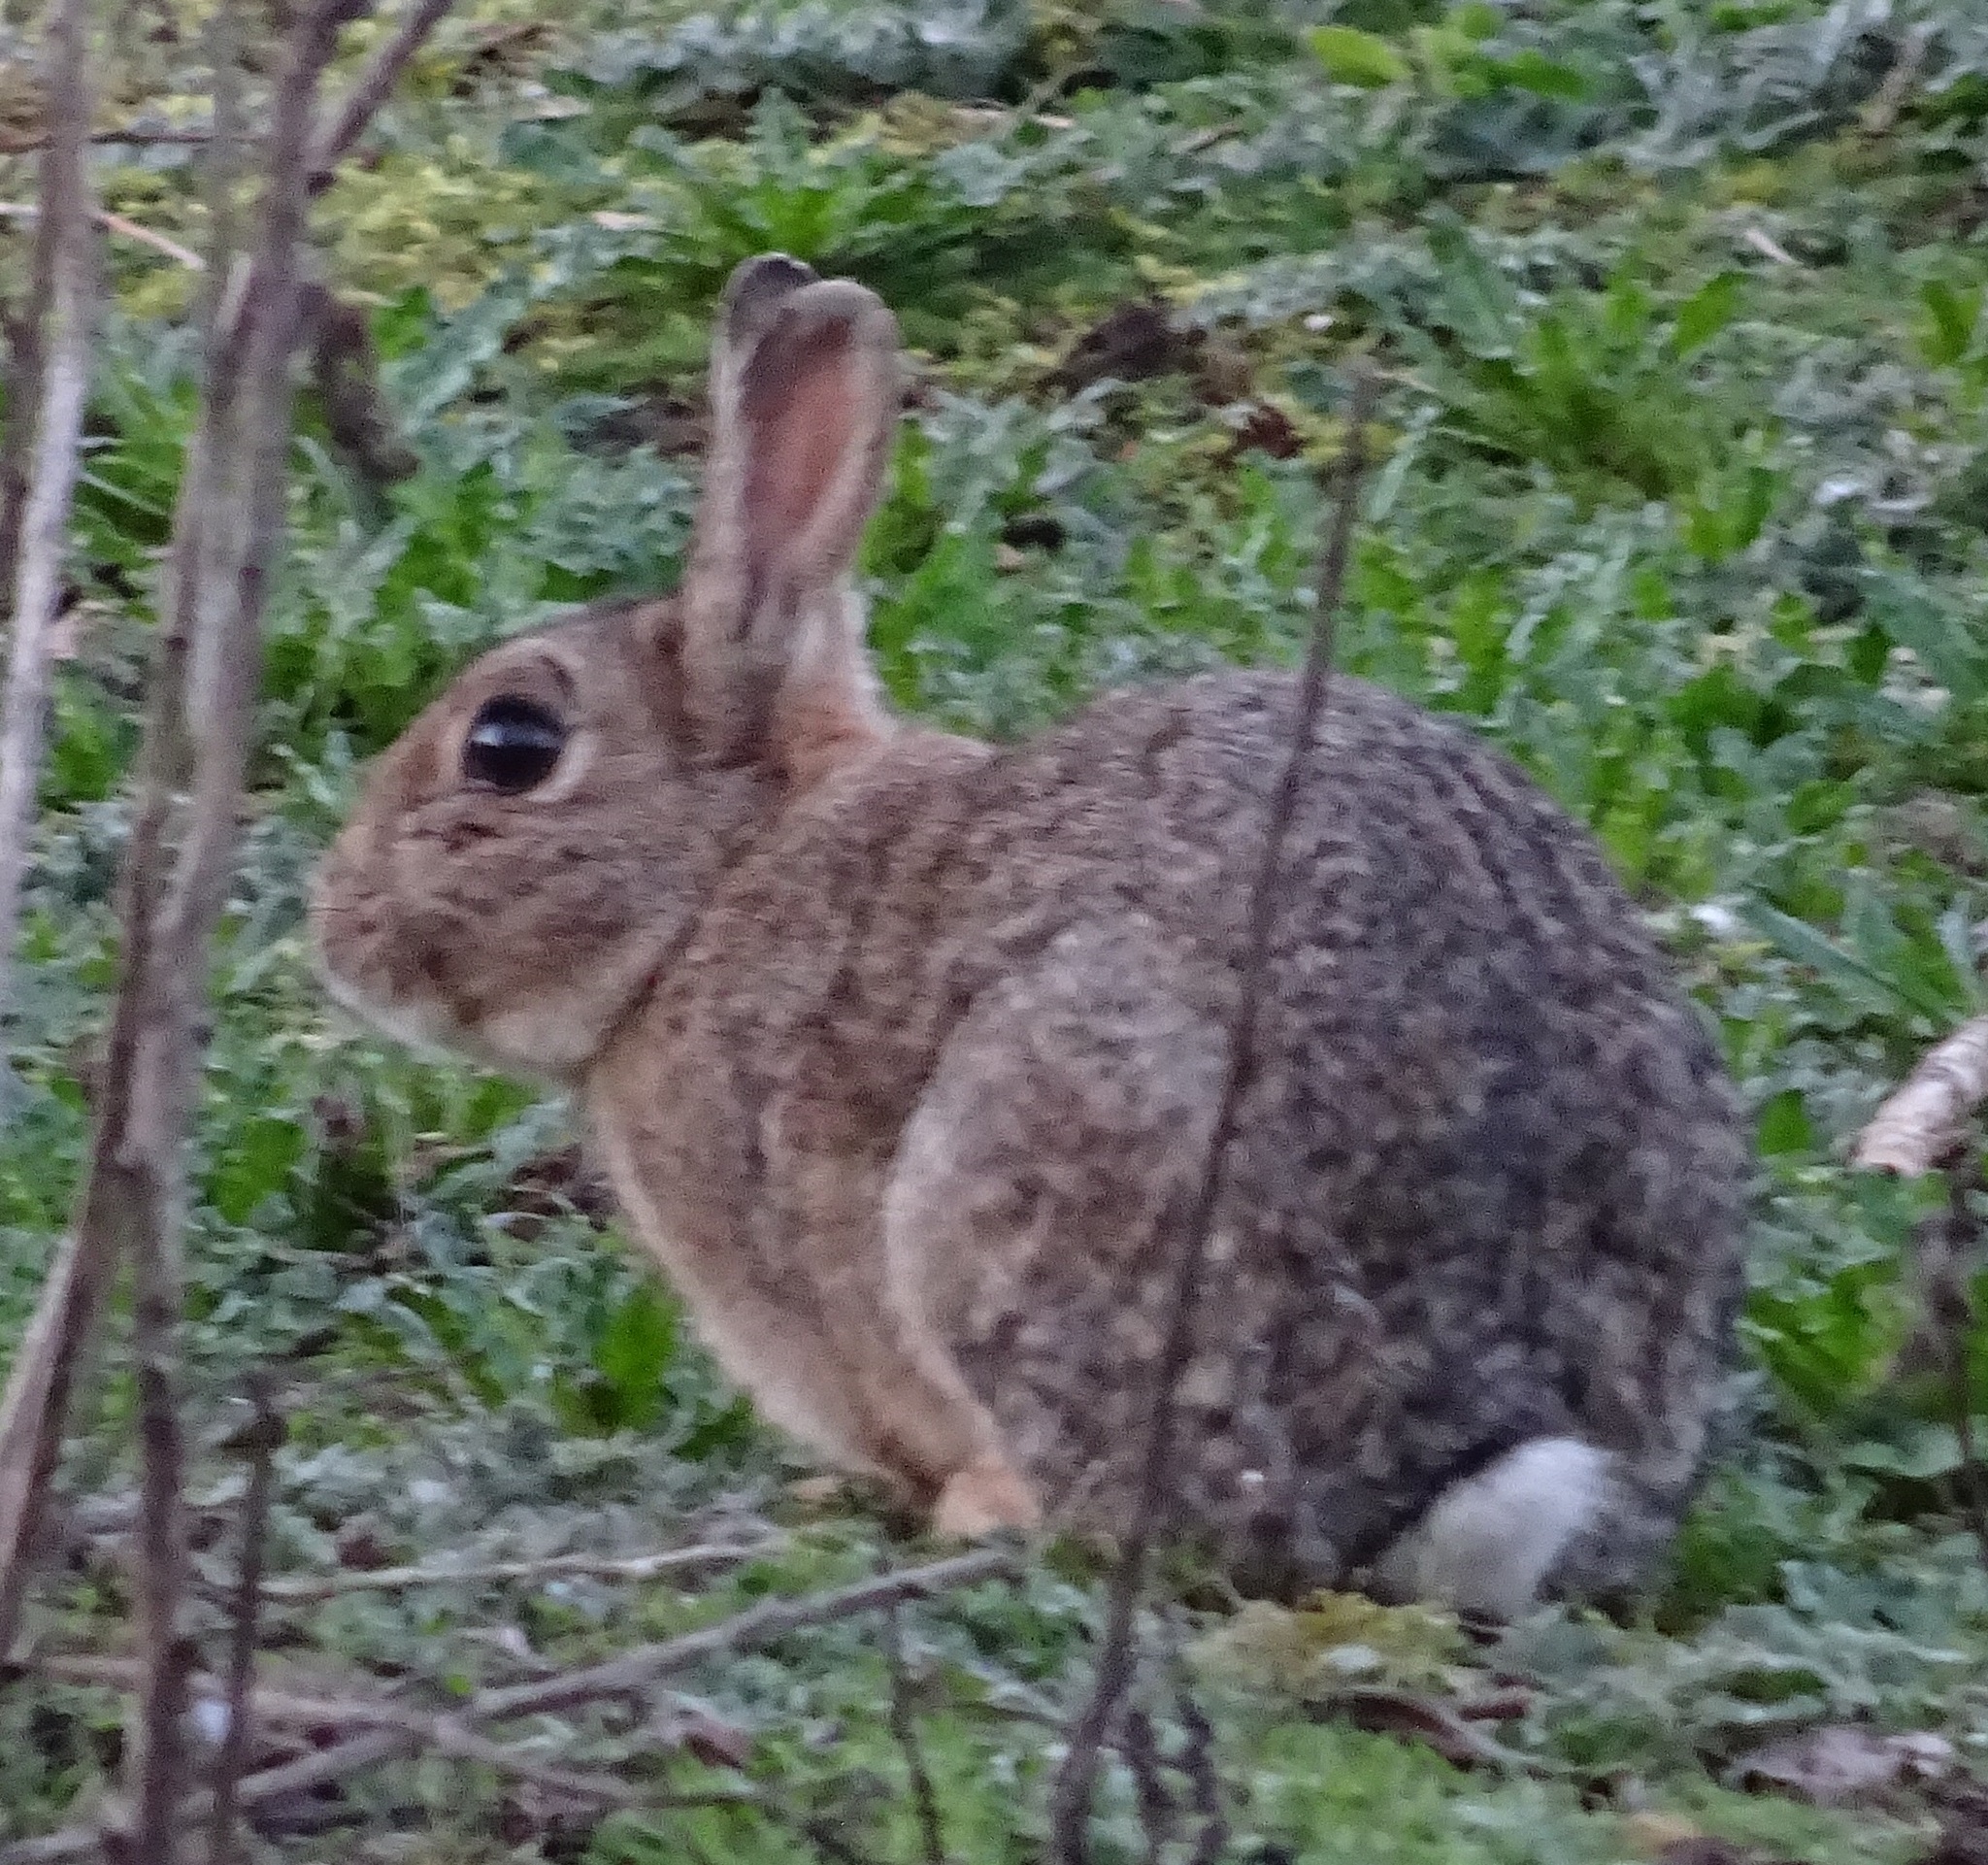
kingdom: Animalia
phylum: Chordata
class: Mammalia
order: Lagomorpha
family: Leporidae
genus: Oryctolagus
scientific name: Oryctolagus cuniculus
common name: European rabbit
